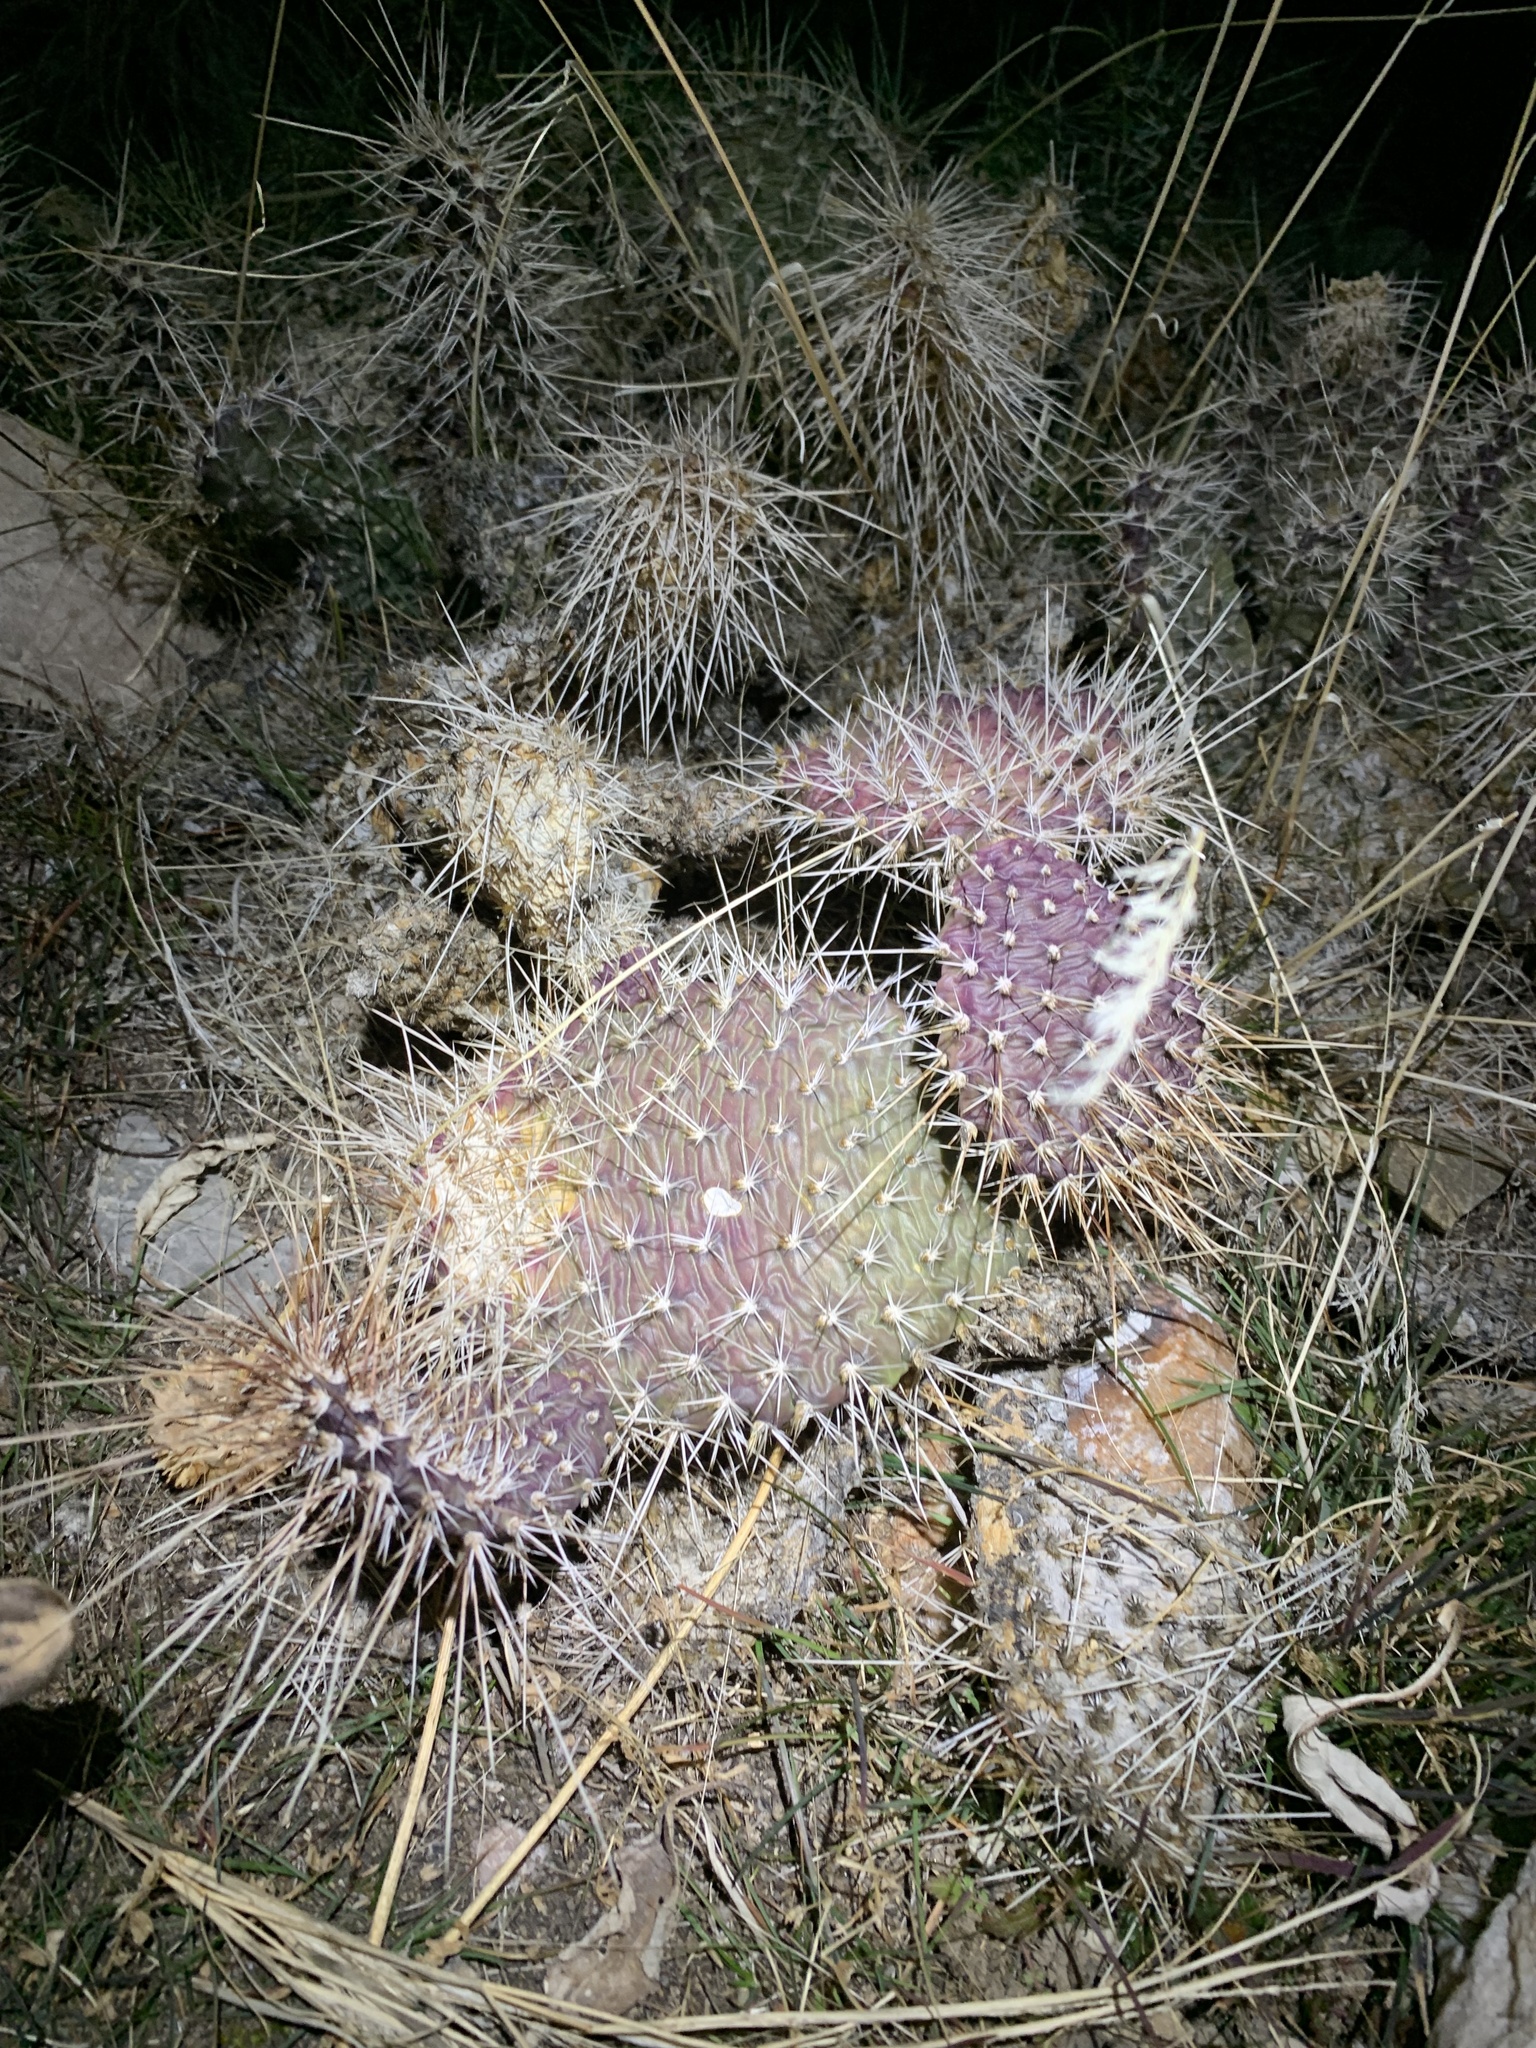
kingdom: Plantae
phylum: Tracheophyta
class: Magnoliopsida
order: Caryophyllales
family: Cactaceae
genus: Opuntia
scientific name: Opuntia polyacantha
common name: Plains prickly-pear
